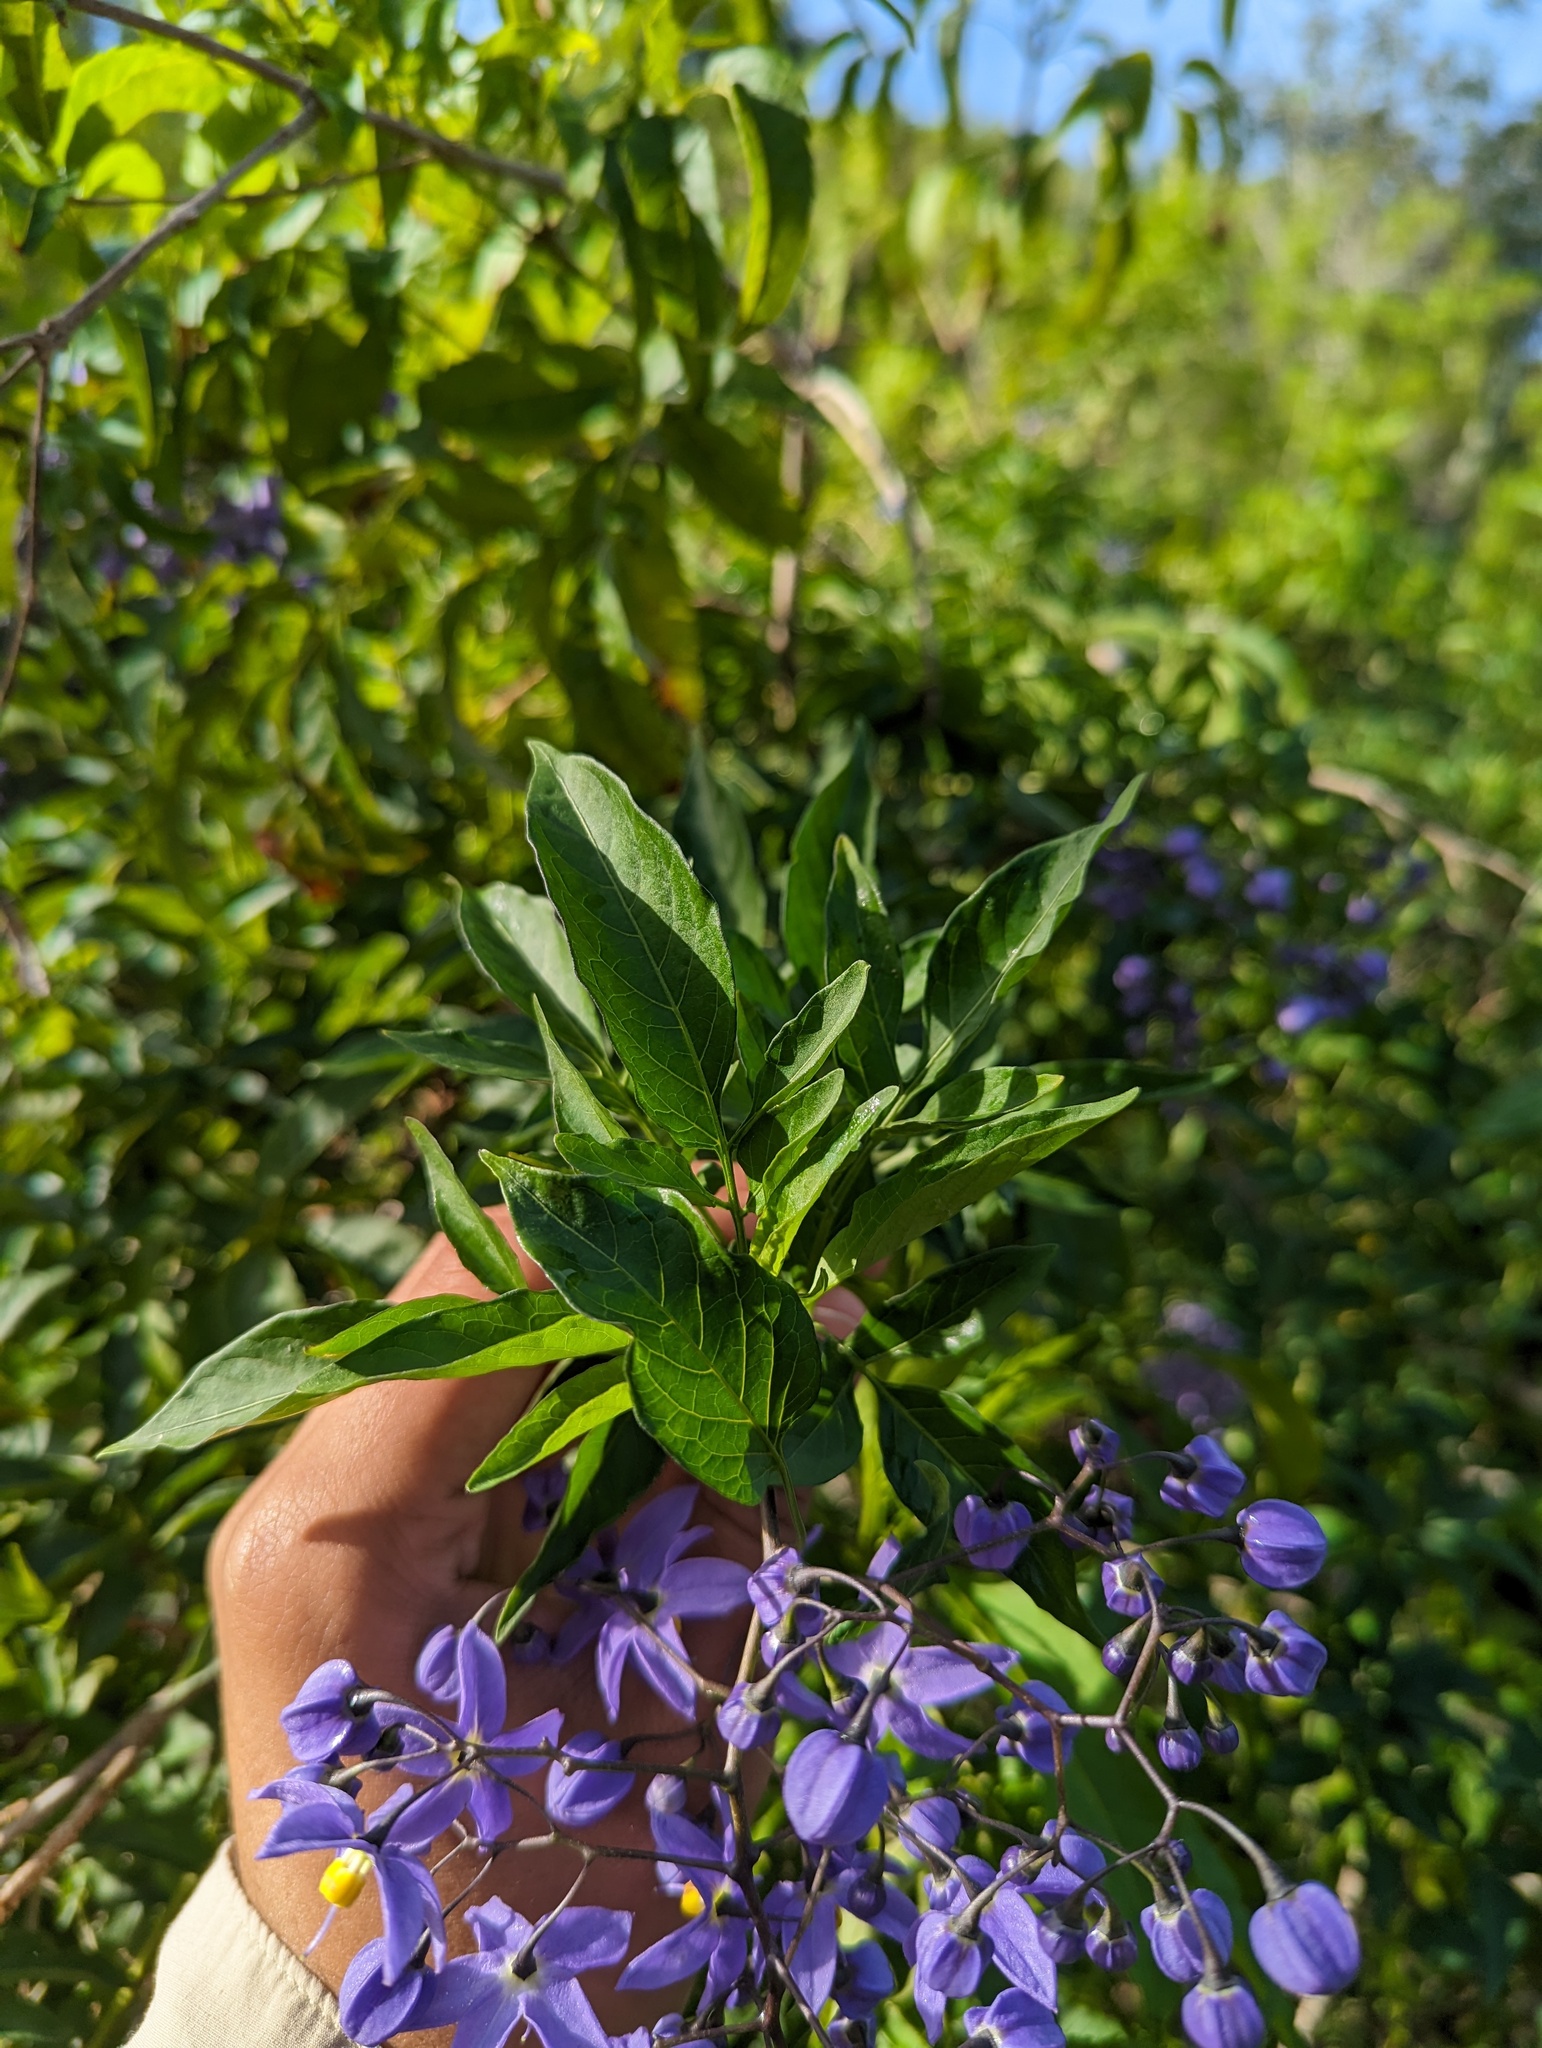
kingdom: Plantae
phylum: Tracheophyta
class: Magnoliopsida
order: Solanales
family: Solanaceae
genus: Solanum
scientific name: Solanum seaforthianum
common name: Brazilian nightshade
